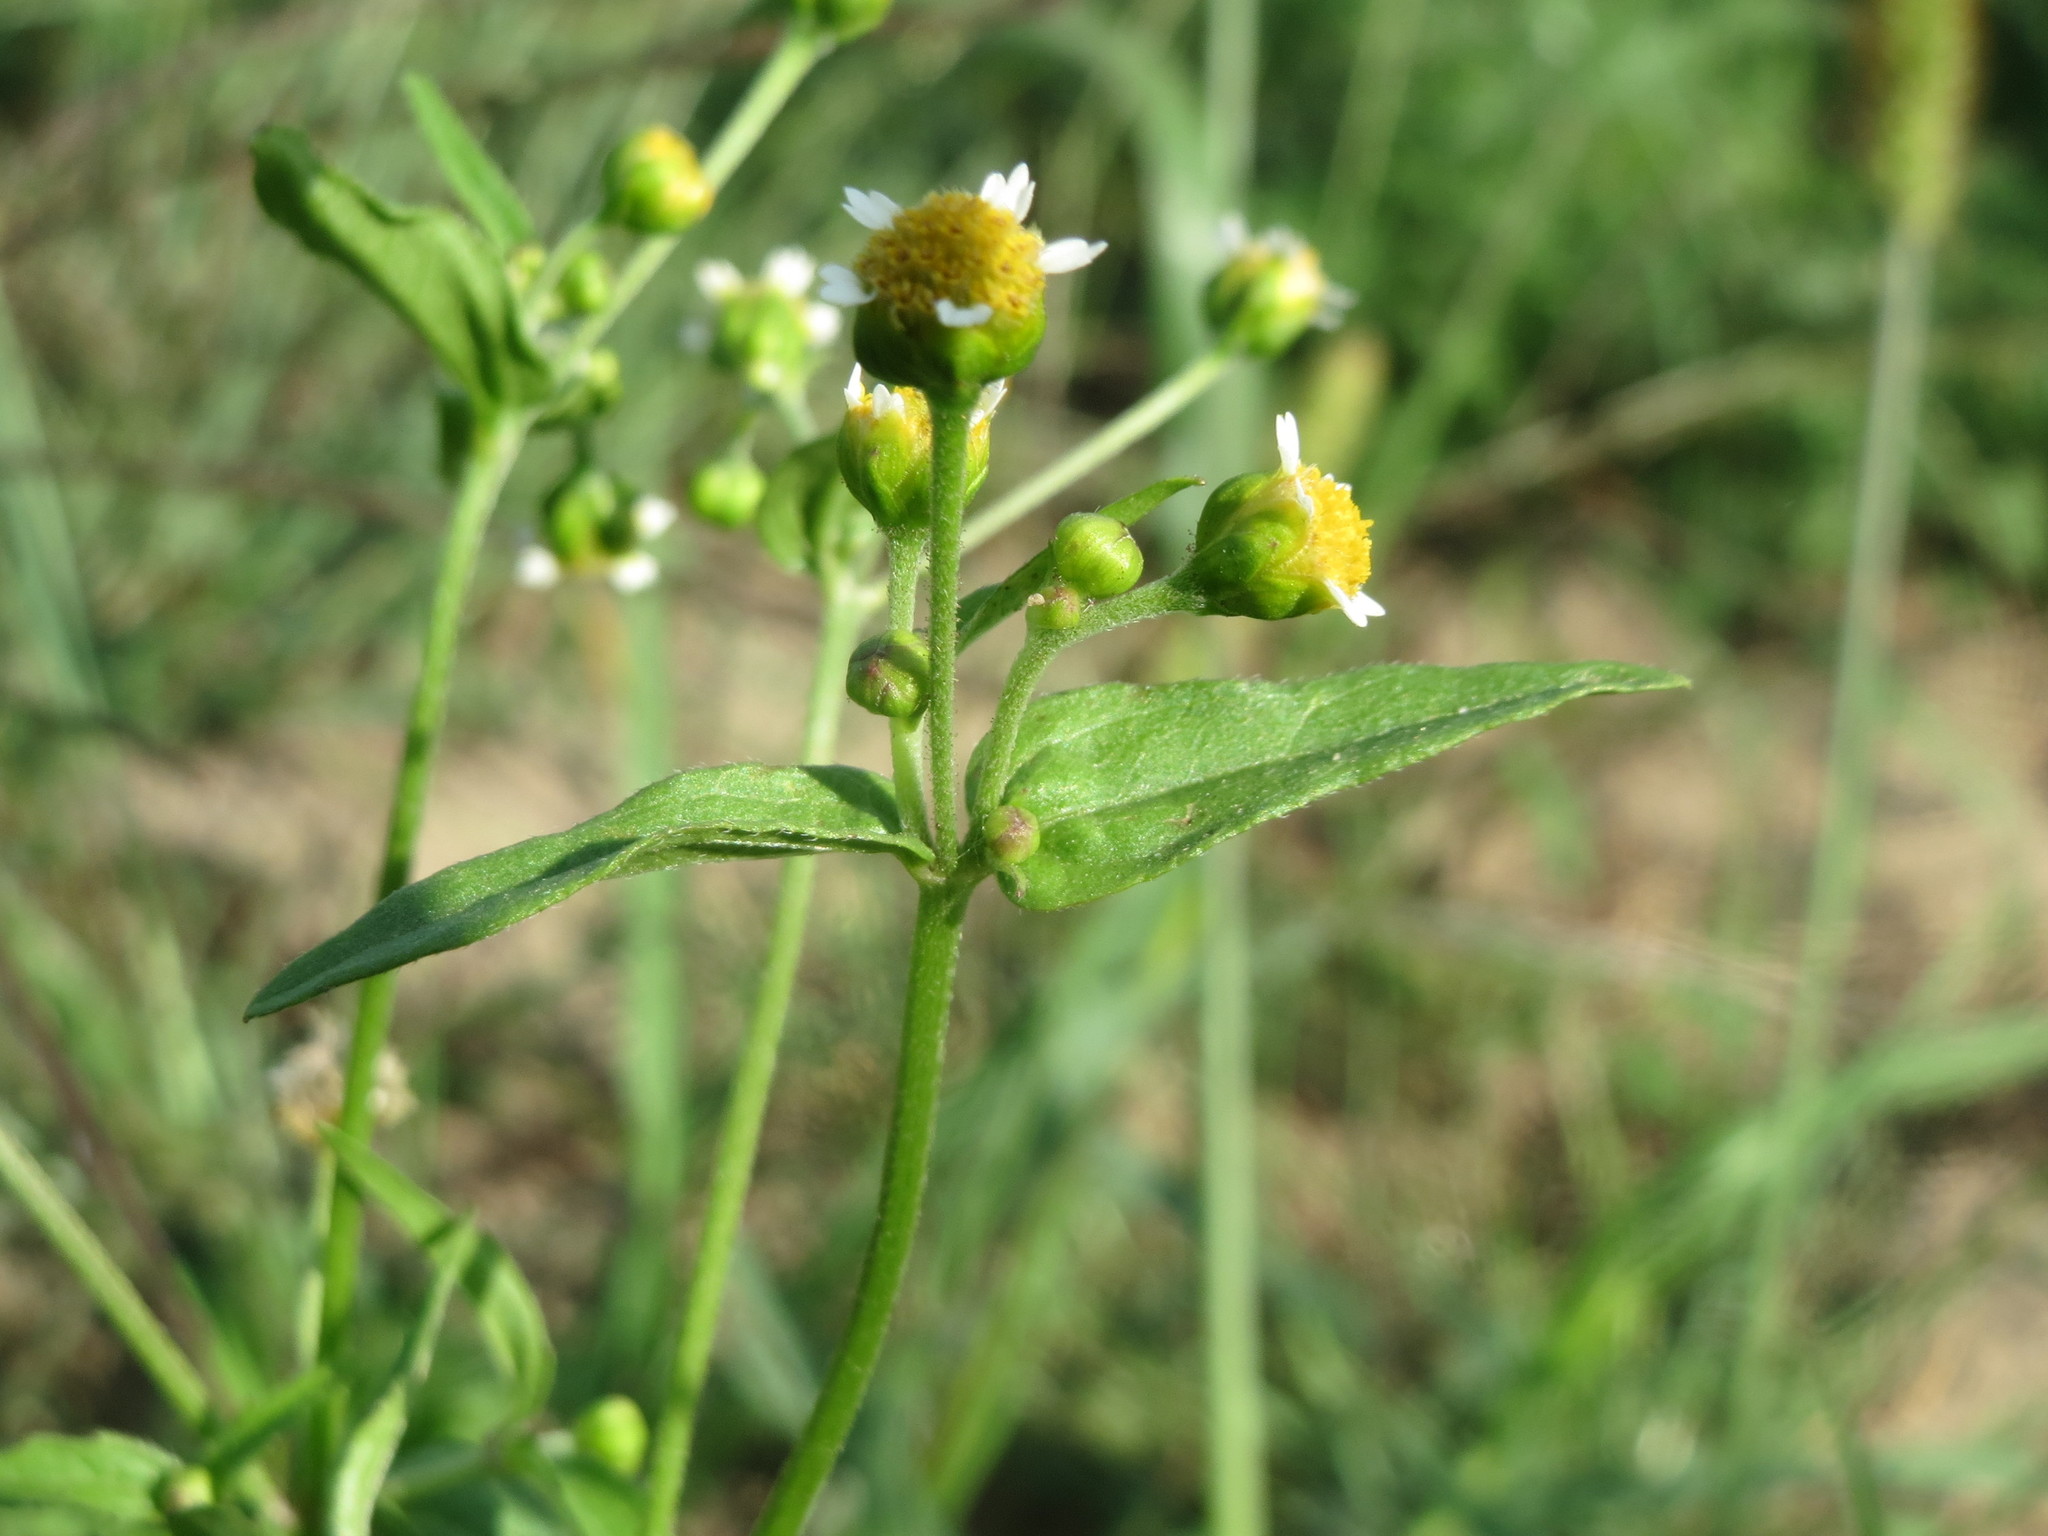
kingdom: Plantae
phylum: Tracheophyta
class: Magnoliopsida
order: Asterales
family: Asteraceae
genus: Galinsoga
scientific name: Galinsoga parviflora
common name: Gallant soldier
